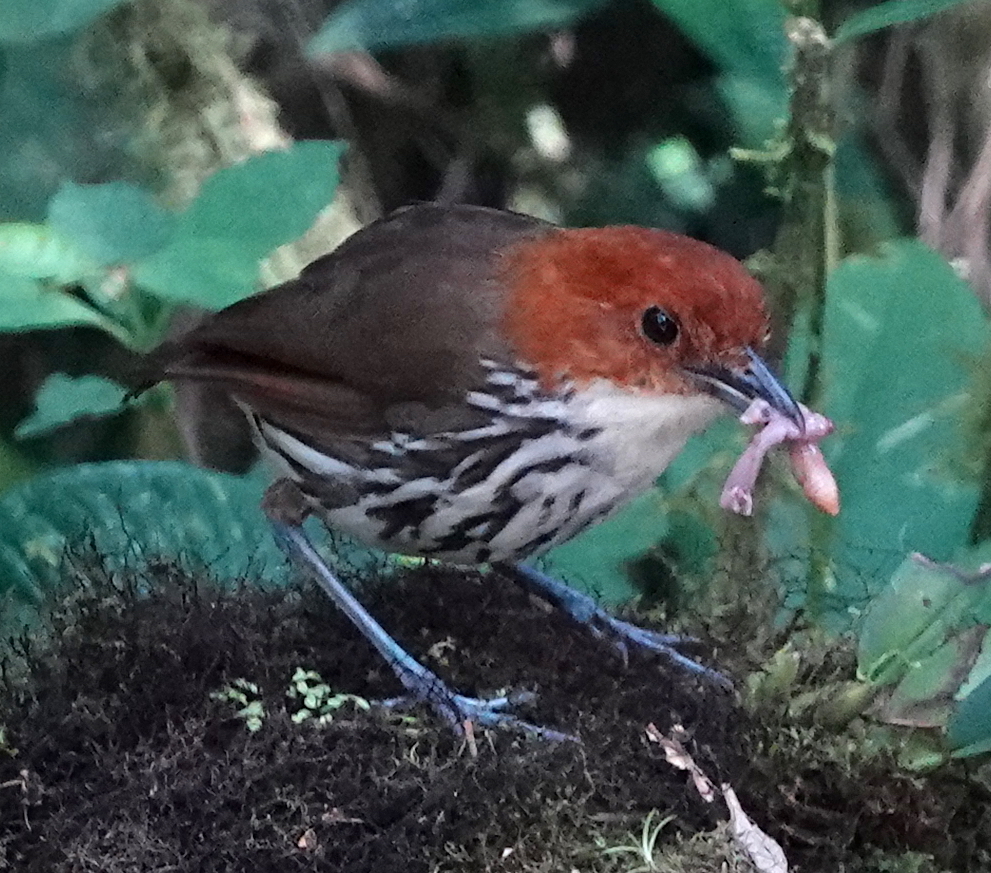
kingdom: Animalia
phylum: Chordata
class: Aves
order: Passeriformes
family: Grallariidae
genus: Grallaria
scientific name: Grallaria ruficapilla
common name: Chestnut-crowned antpitta
